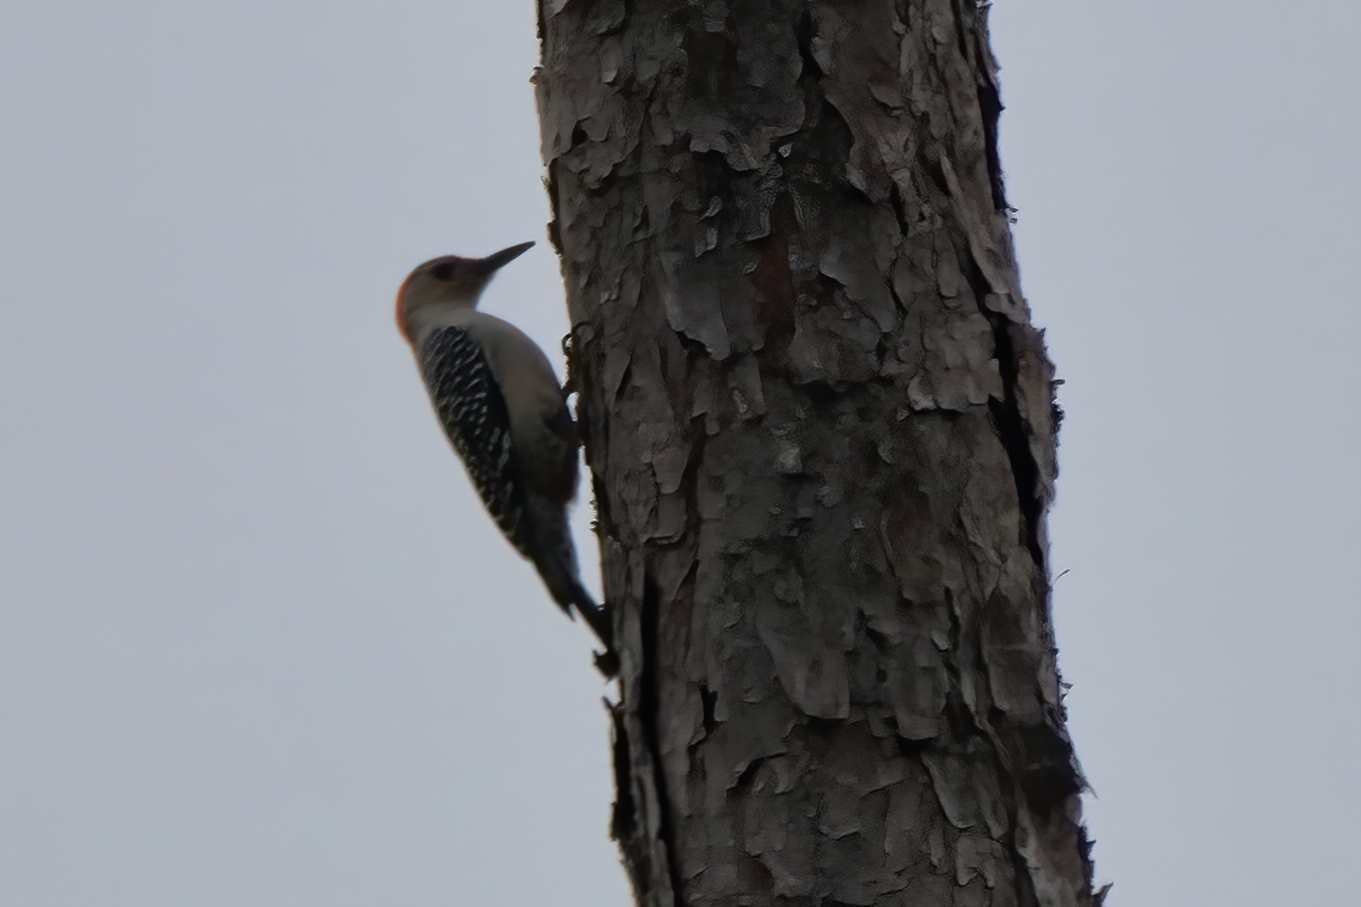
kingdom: Animalia
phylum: Chordata
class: Aves
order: Piciformes
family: Picidae
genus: Melanerpes
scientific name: Melanerpes carolinus
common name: Red-bellied woodpecker
